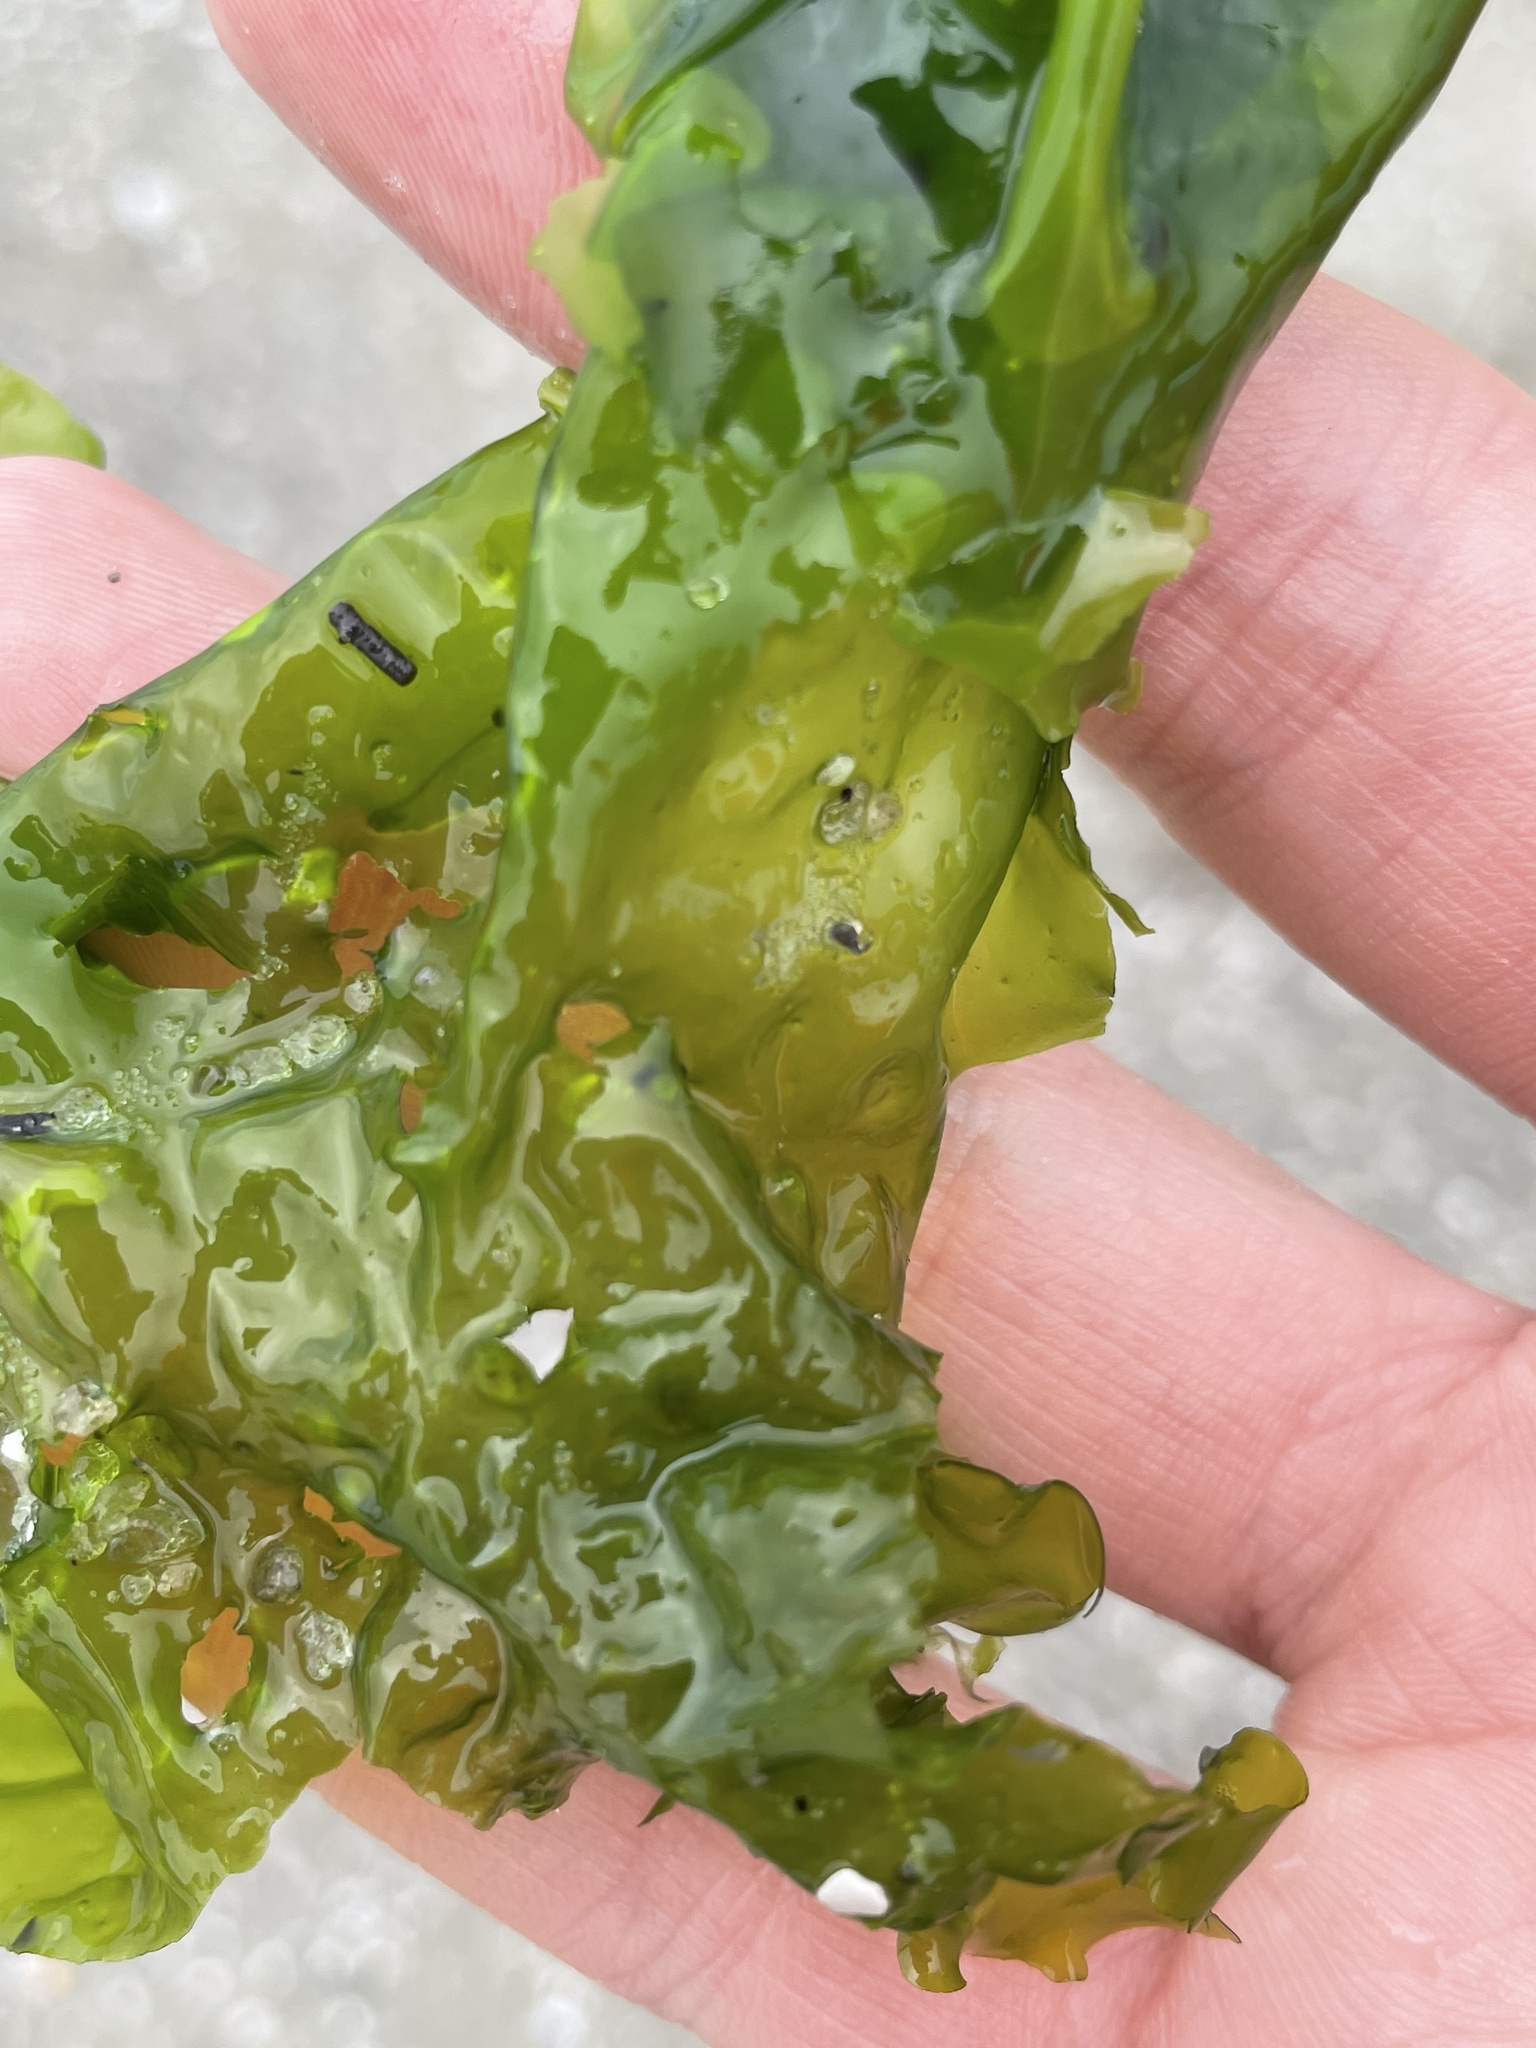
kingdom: Plantae
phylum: Chlorophyta
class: Ulvophyceae
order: Ulvales
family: Ulvaceae
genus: Ulva
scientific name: Ulva lactuca
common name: Sea lettuce
